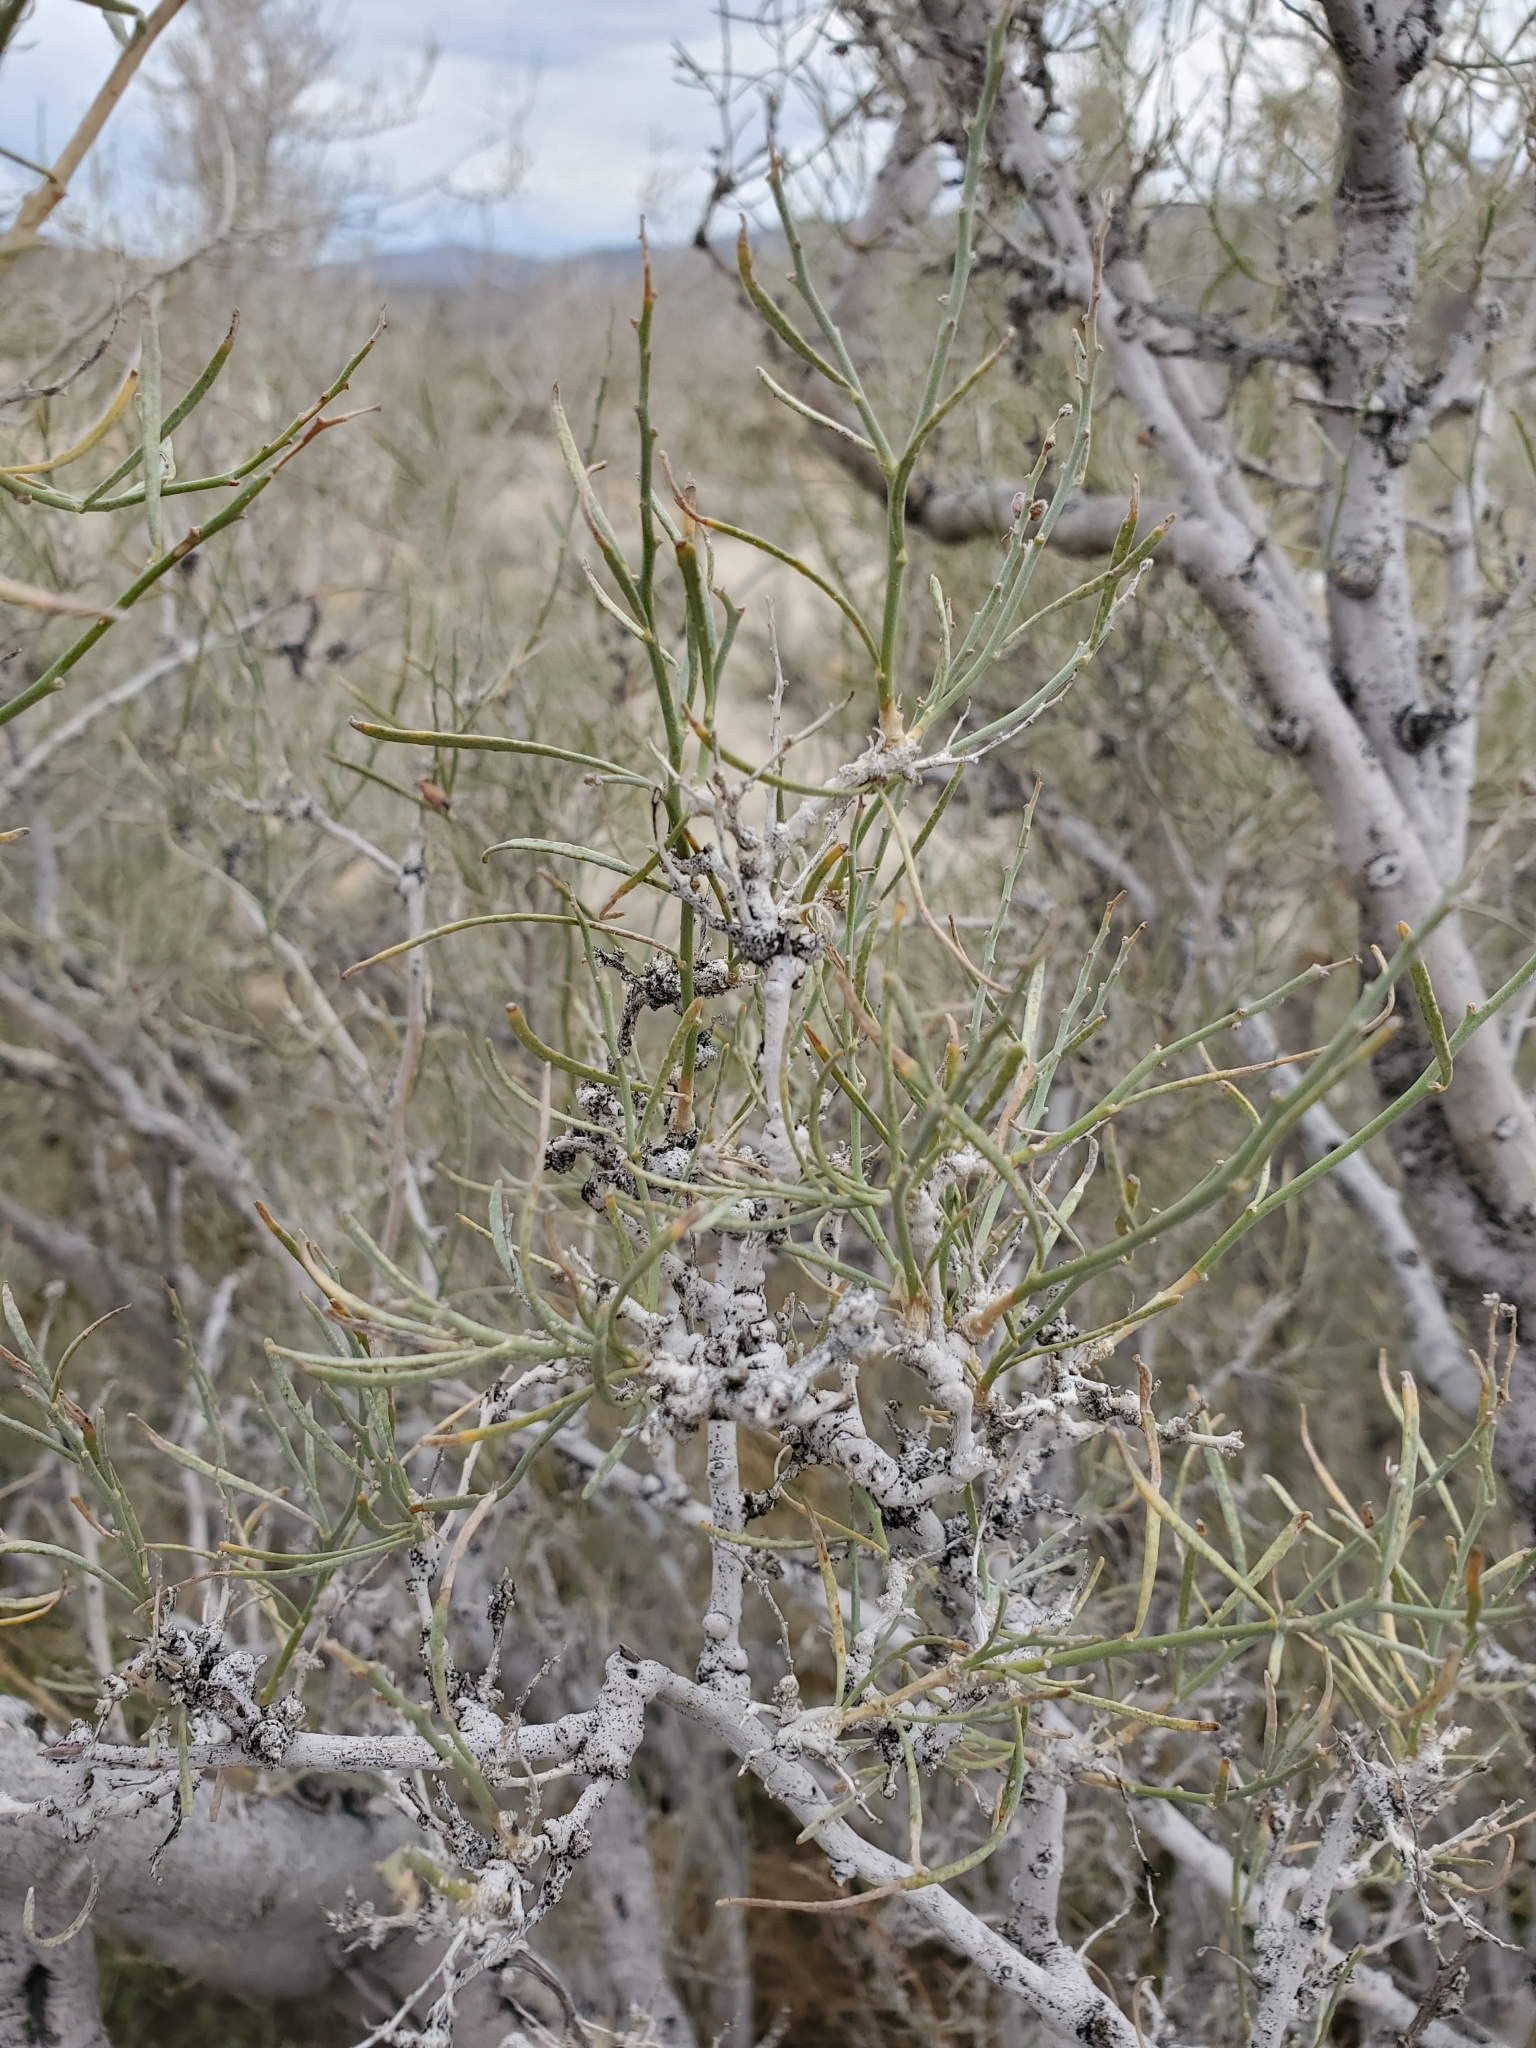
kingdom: Plantae
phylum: Tracheophyta
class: Magnoliopsida
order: Fabales
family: Fabaceae
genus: Psorothamnus
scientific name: Psorothamnus schottii
